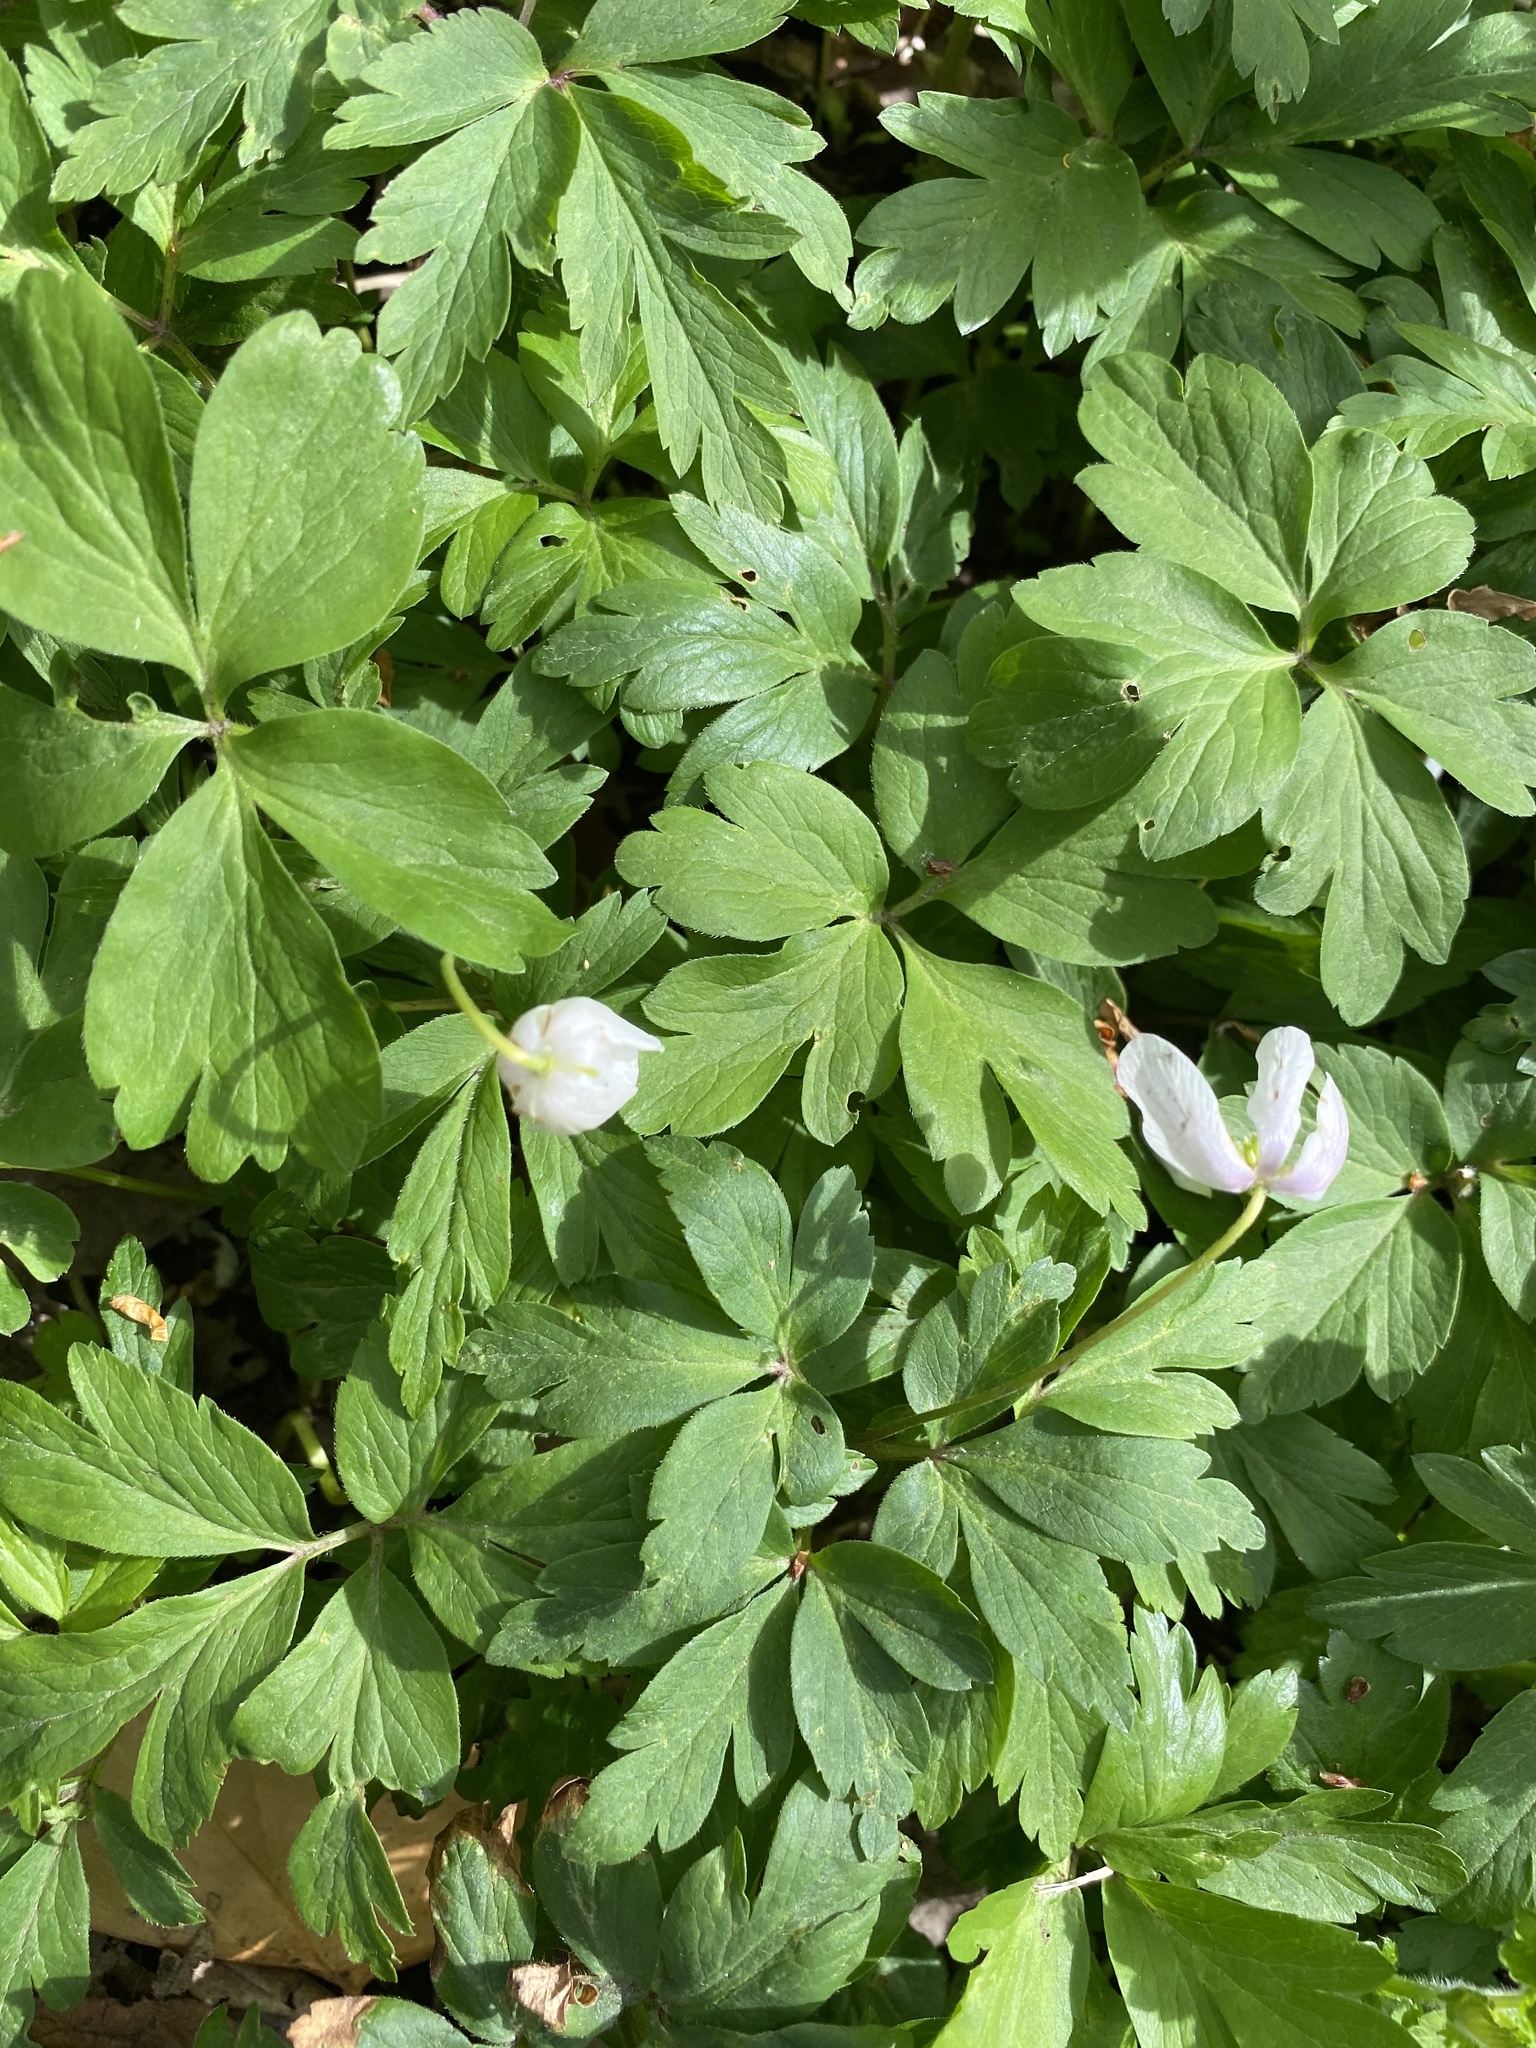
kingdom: Plantae
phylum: Tracheophyta
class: Magnoliopsida
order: Ranunculales
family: Ranunculaceae
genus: Anemone
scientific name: Anemone nemorosa
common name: Wood anemone
